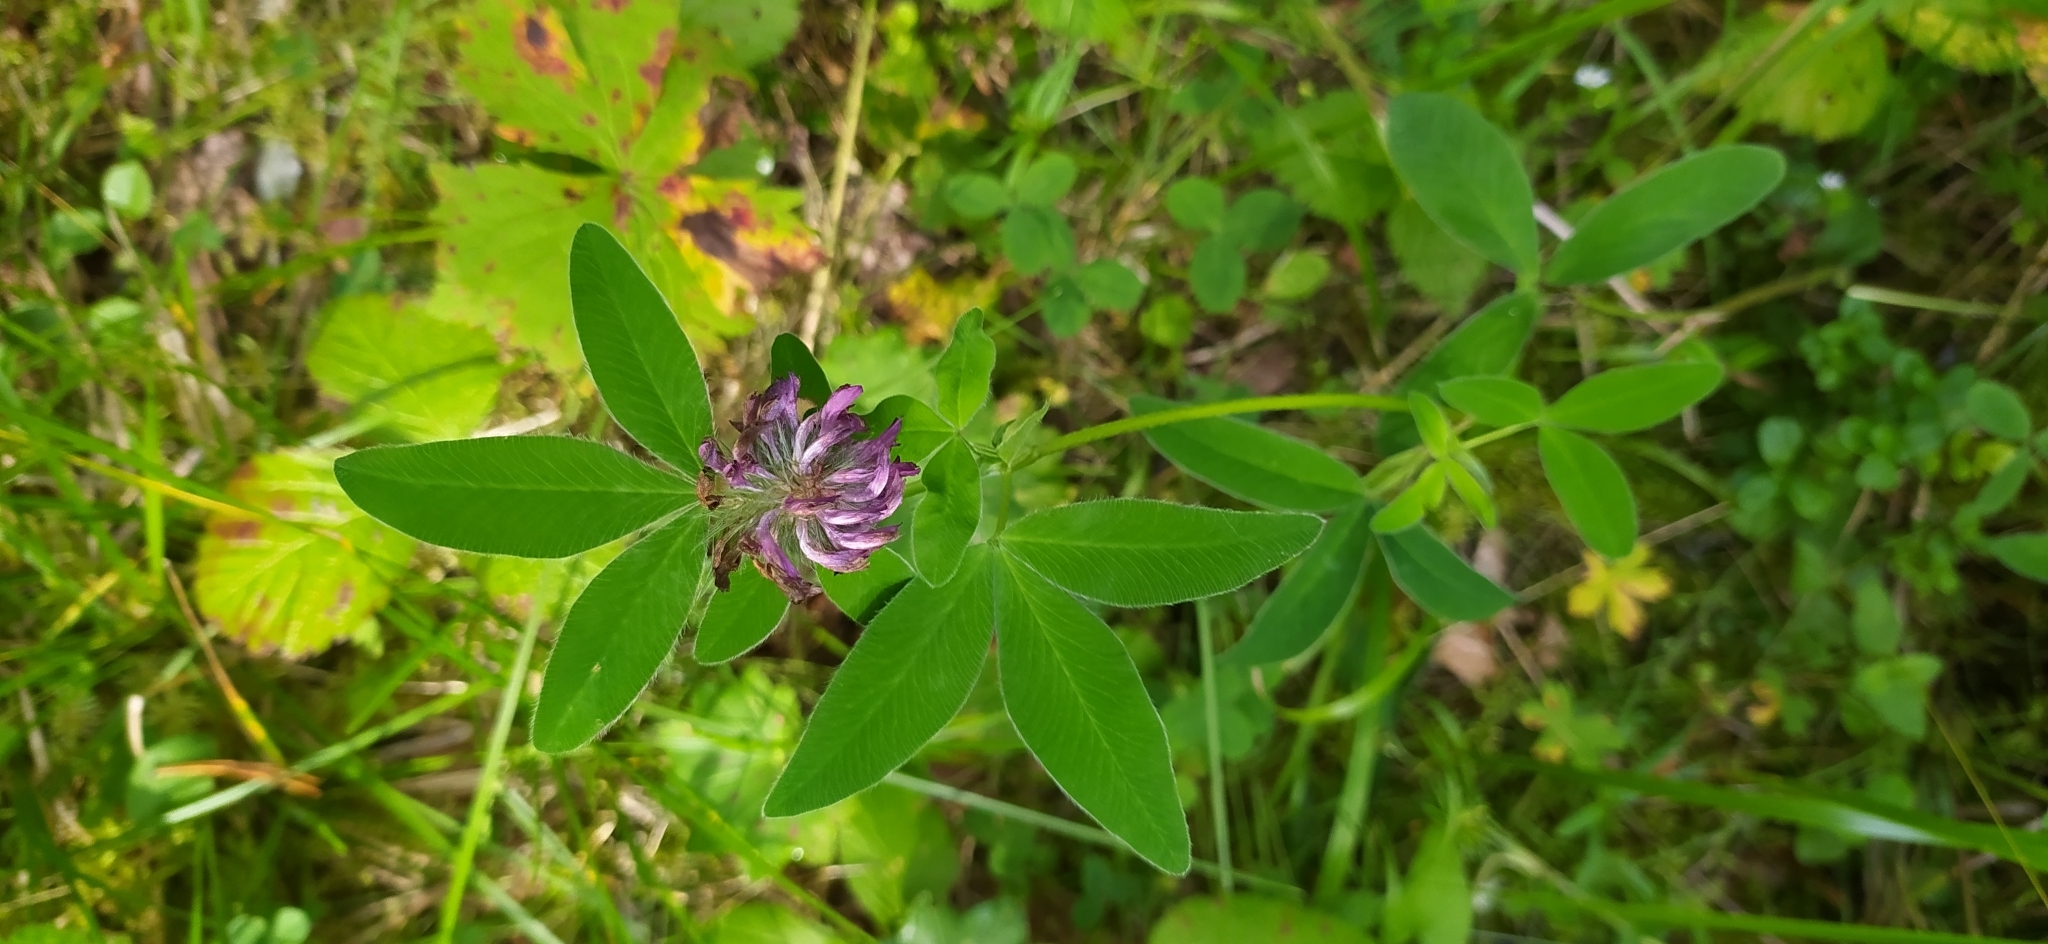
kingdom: Plantae
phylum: Tracheophyta
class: Magnoliopsida
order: Fabales
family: Fabaceae
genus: Trifolium
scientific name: Trifolium medium
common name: Zigzag clover
